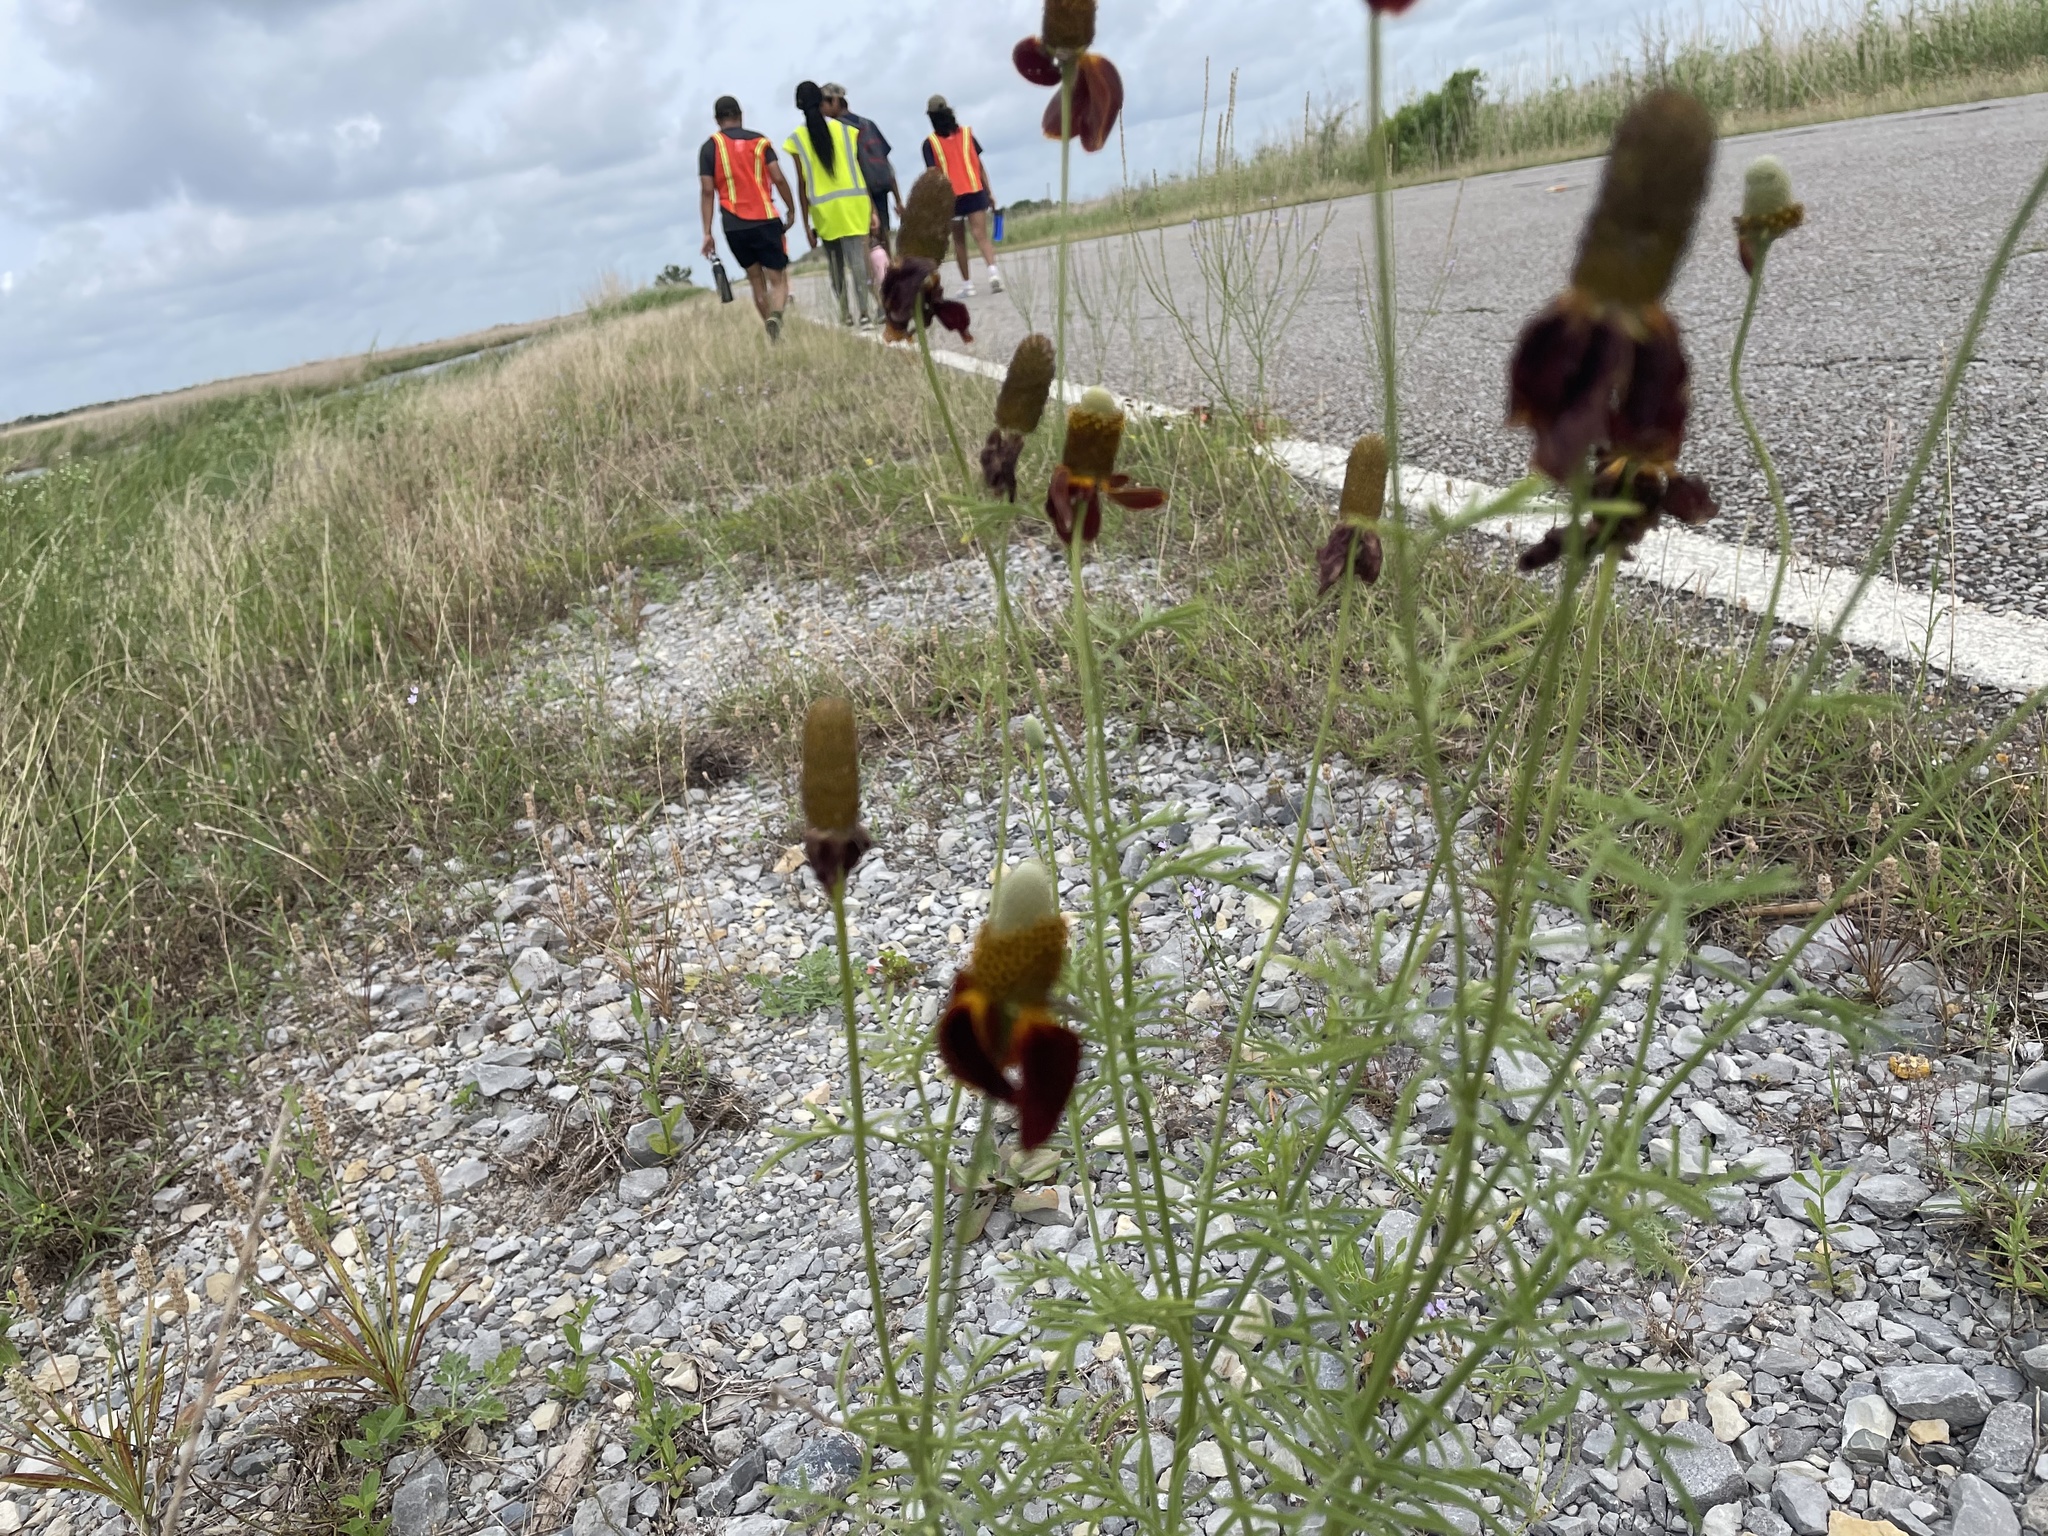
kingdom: Animalia
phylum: Chordata
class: Crocodylia
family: Alligatoridae
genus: Alligator
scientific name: Alligator mississippiensis
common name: American alligator
